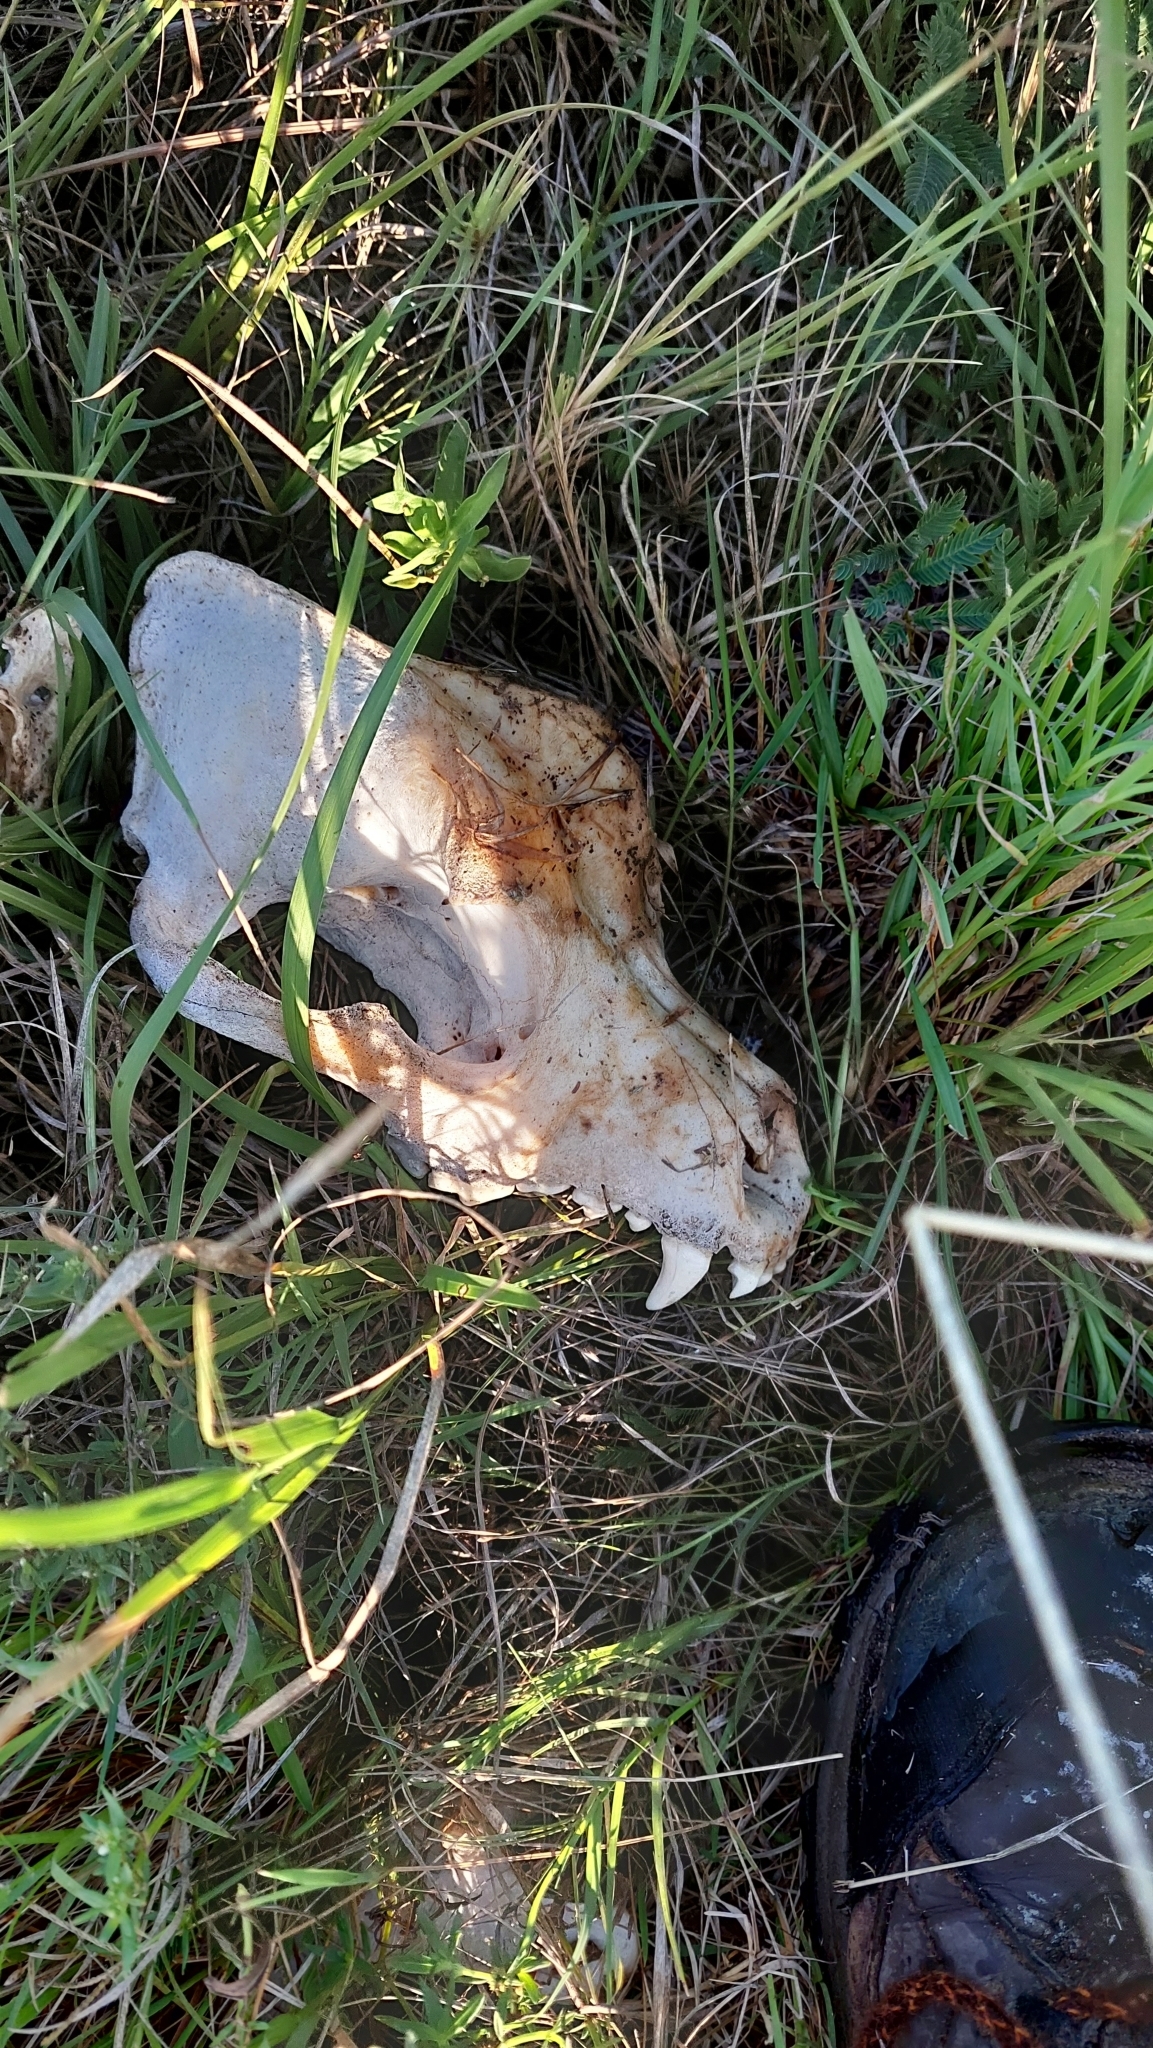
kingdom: Animalia
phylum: Chordata
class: Mammalia
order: Carnivora
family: Canidae
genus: Canis
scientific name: Canis lupus
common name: Gray wolf
